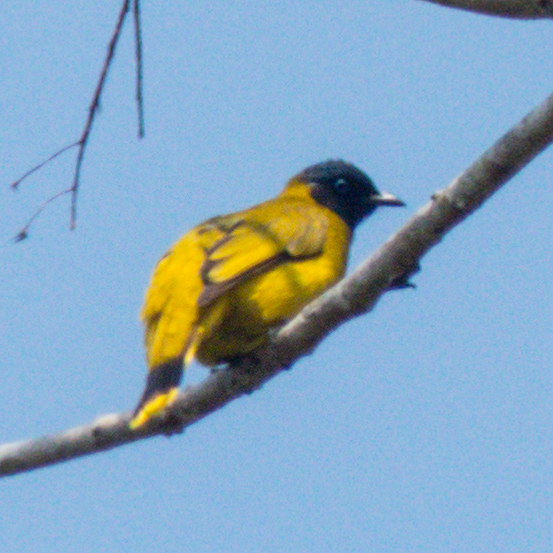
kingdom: Animalia
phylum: Chordata
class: Aves
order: Passeriformes
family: Pycnonotidae
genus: Microtarsus
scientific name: Microtarsus
